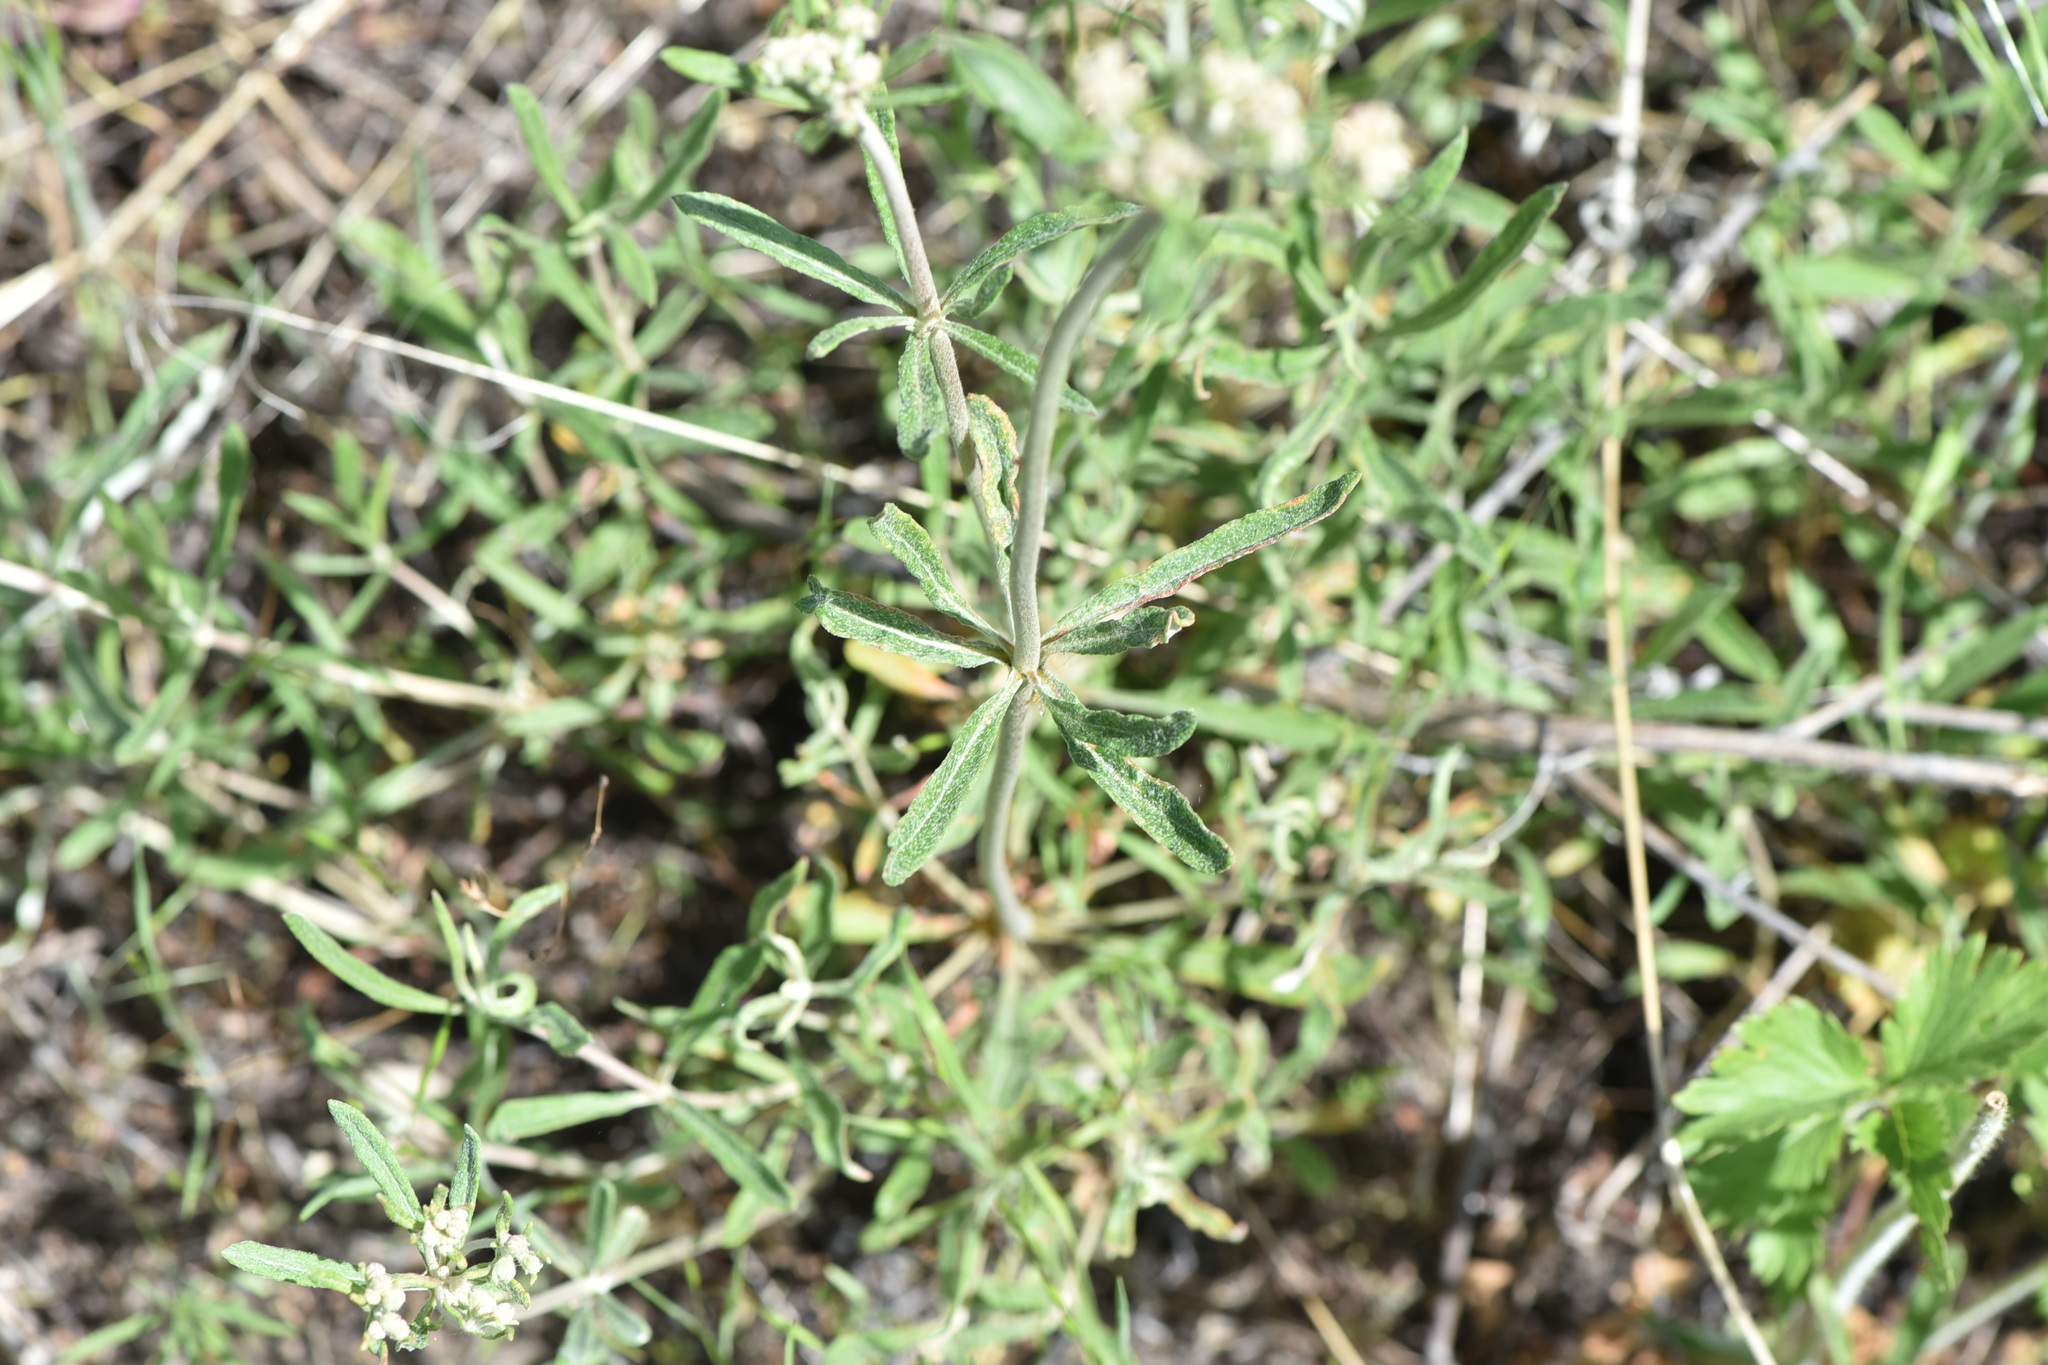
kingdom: Plantae
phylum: Tracheophyta
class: Magnoliopsida
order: Caryophyllales
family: Polygonaceae
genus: Eriogonum
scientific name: Eriogonum heracleoides
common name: Wyeth's buckwheat
